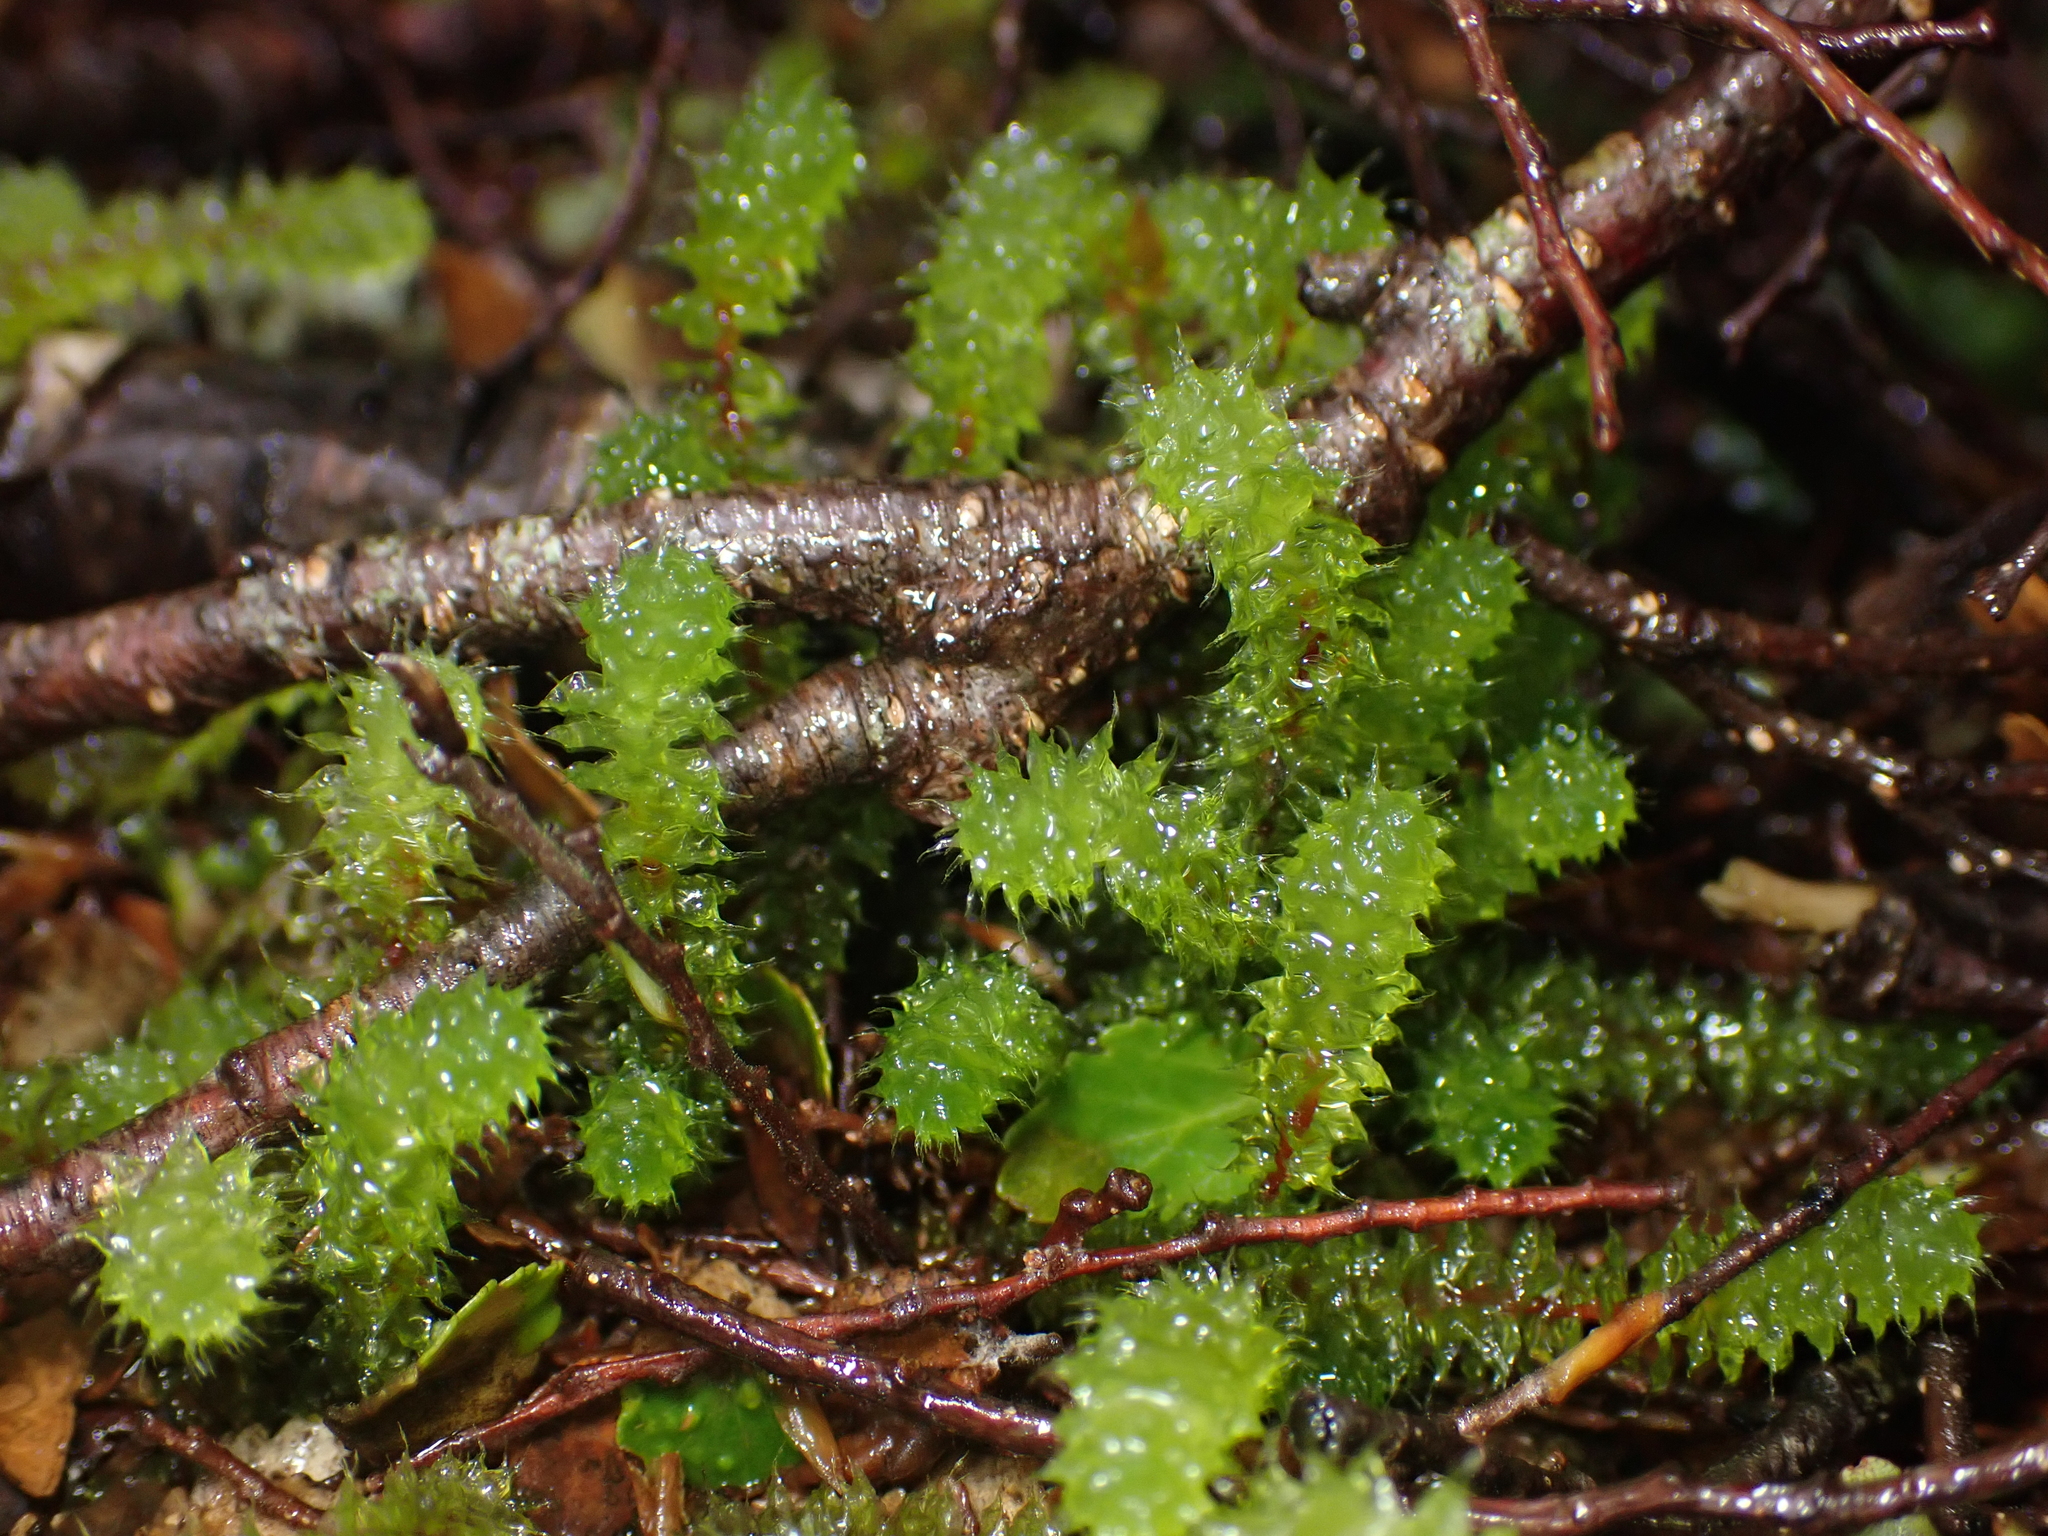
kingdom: Plantae
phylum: Bryophyta
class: Bryopsida
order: Ptychomniales
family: Ptychomniaceae
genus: Ptychomnion
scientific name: Ptychomnion aciculare
